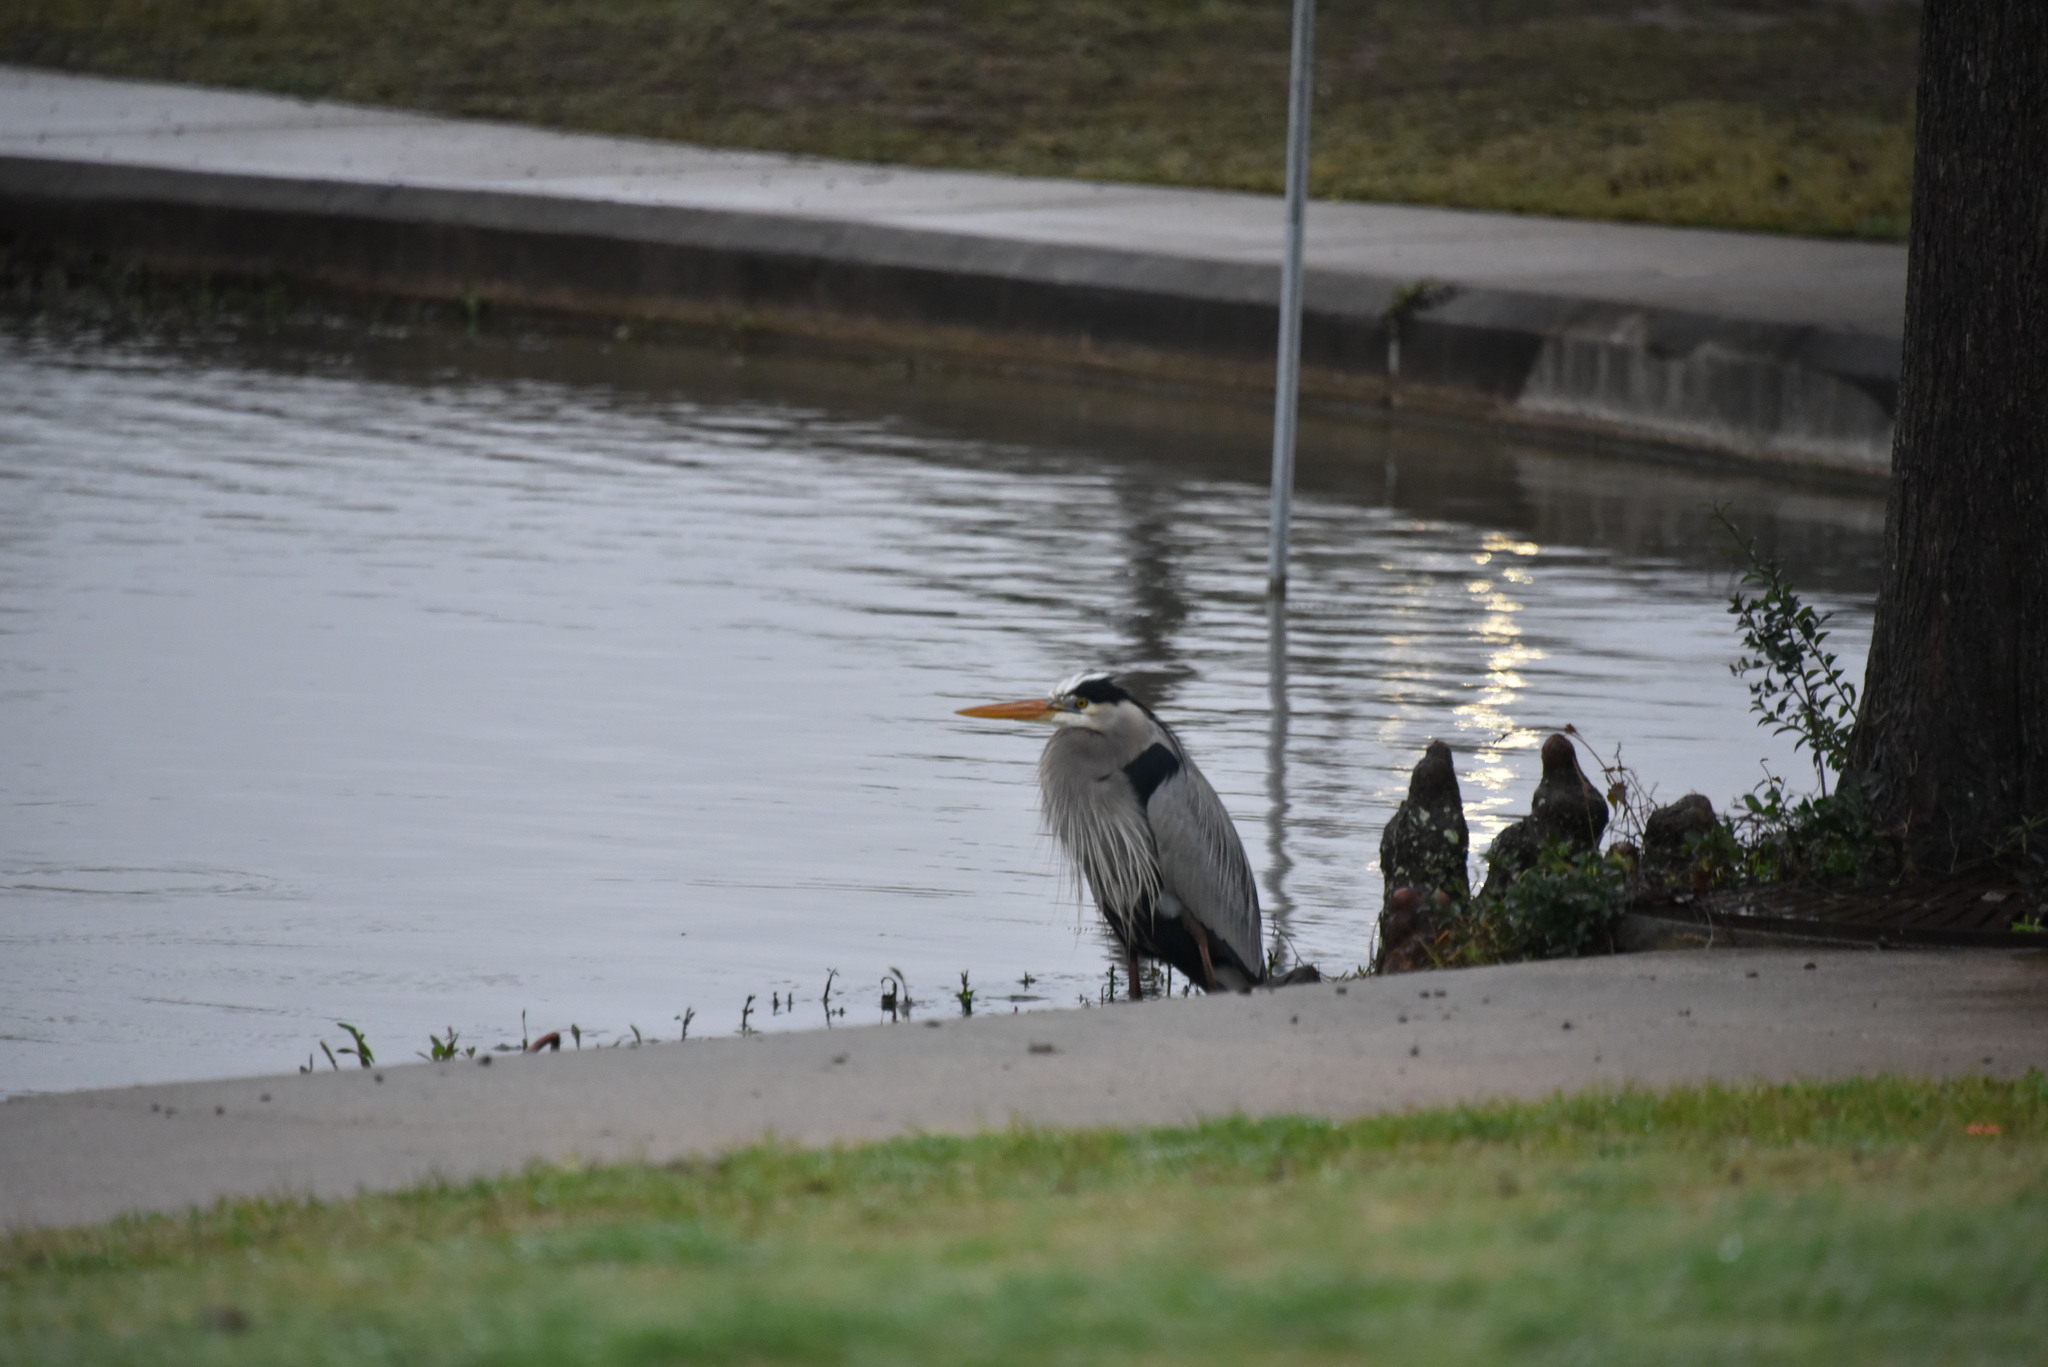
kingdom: Animalia
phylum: Chordata
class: Aves
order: Pelecaniformes
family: Ardeidae
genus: Ardea
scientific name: Ardea herodias
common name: Great blue heron
